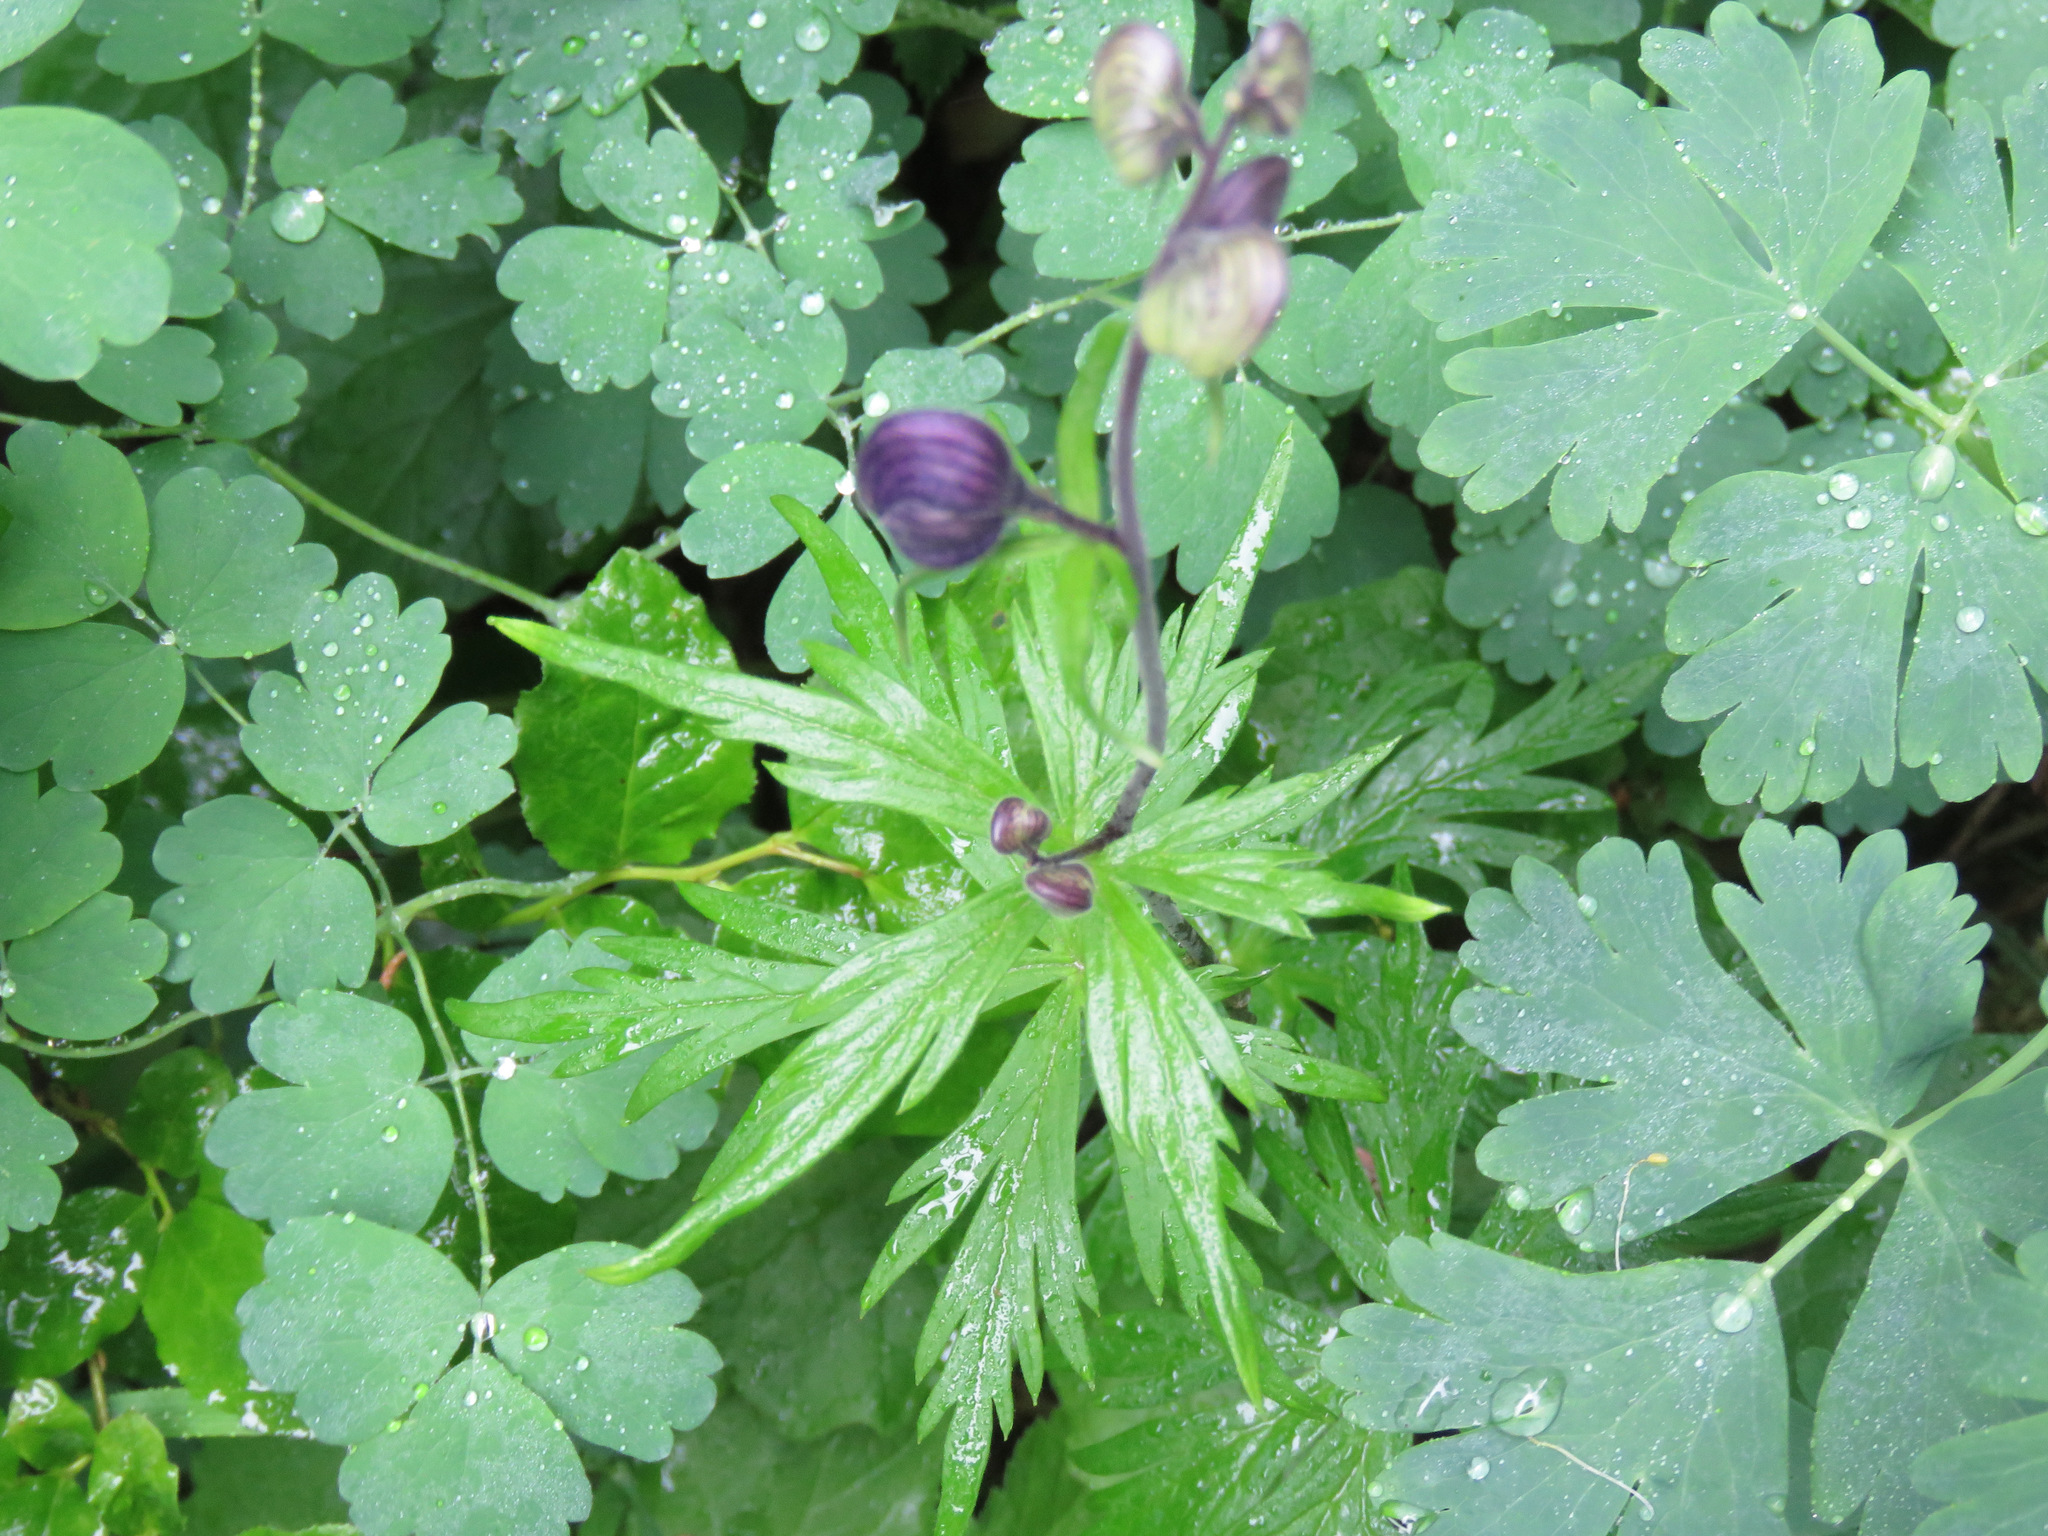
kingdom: Plantae
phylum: Tracheophyta
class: Magnoliopsida
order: Ranunculales
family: Ranunculaceae
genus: Aconitum
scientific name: Aconitum delphiniifolium
